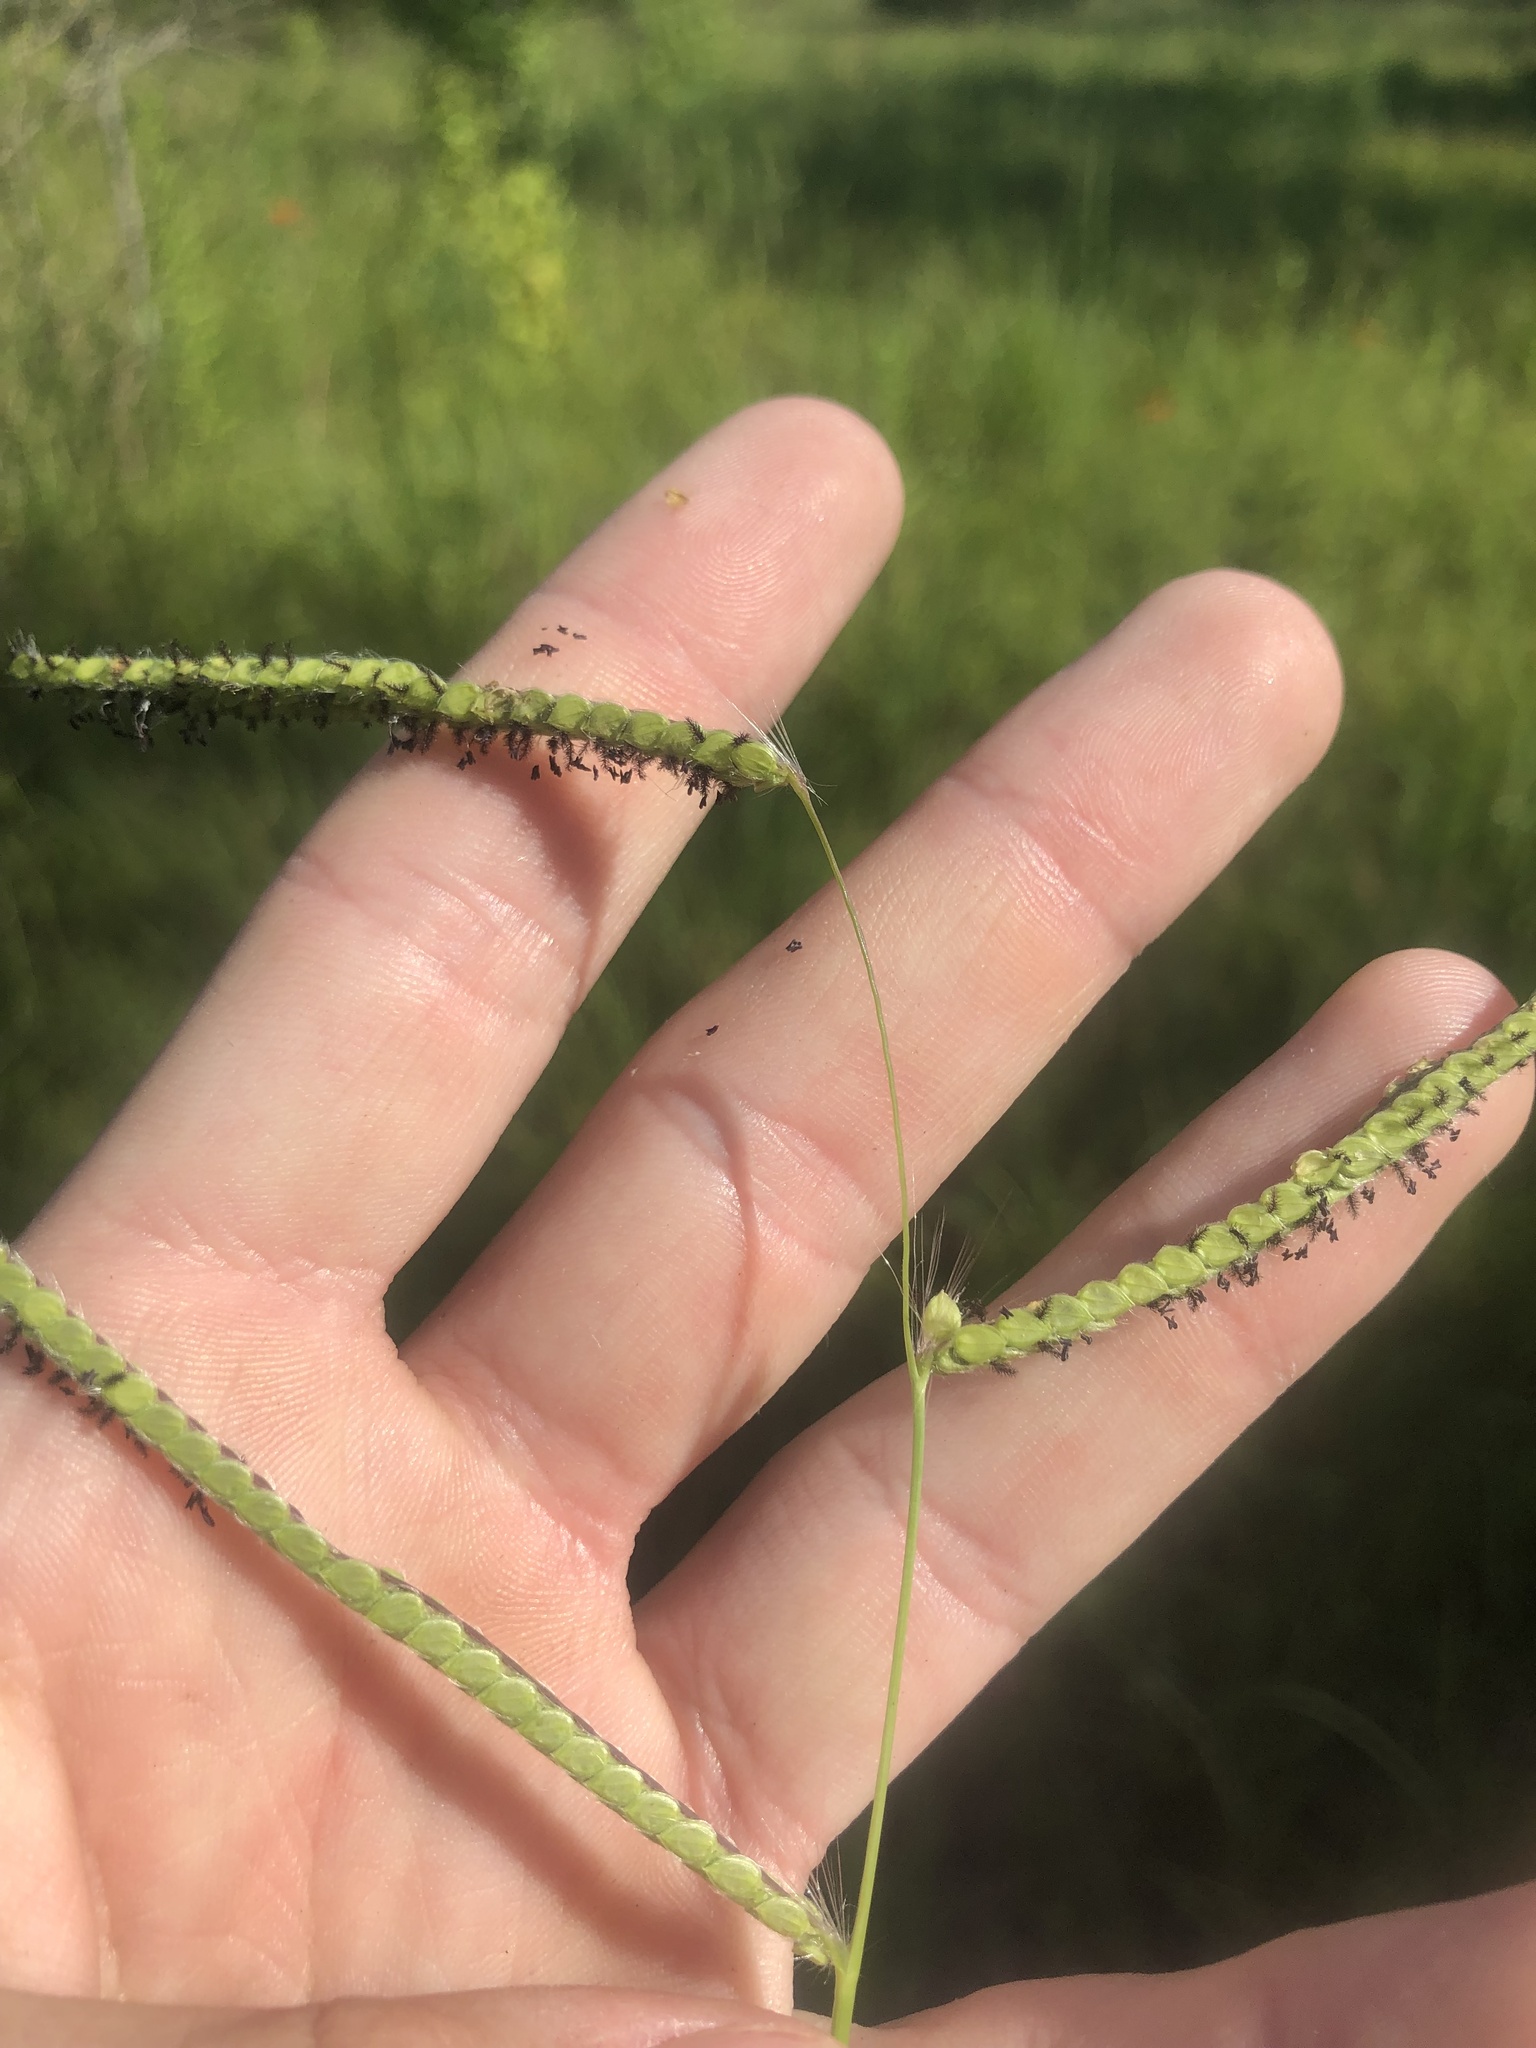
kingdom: Plantae
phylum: Tracheophyta
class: Liliopsida
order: Poales
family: Poaceae
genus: Paspalum
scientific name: Paspalum dilatatum
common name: Dallisgrass
